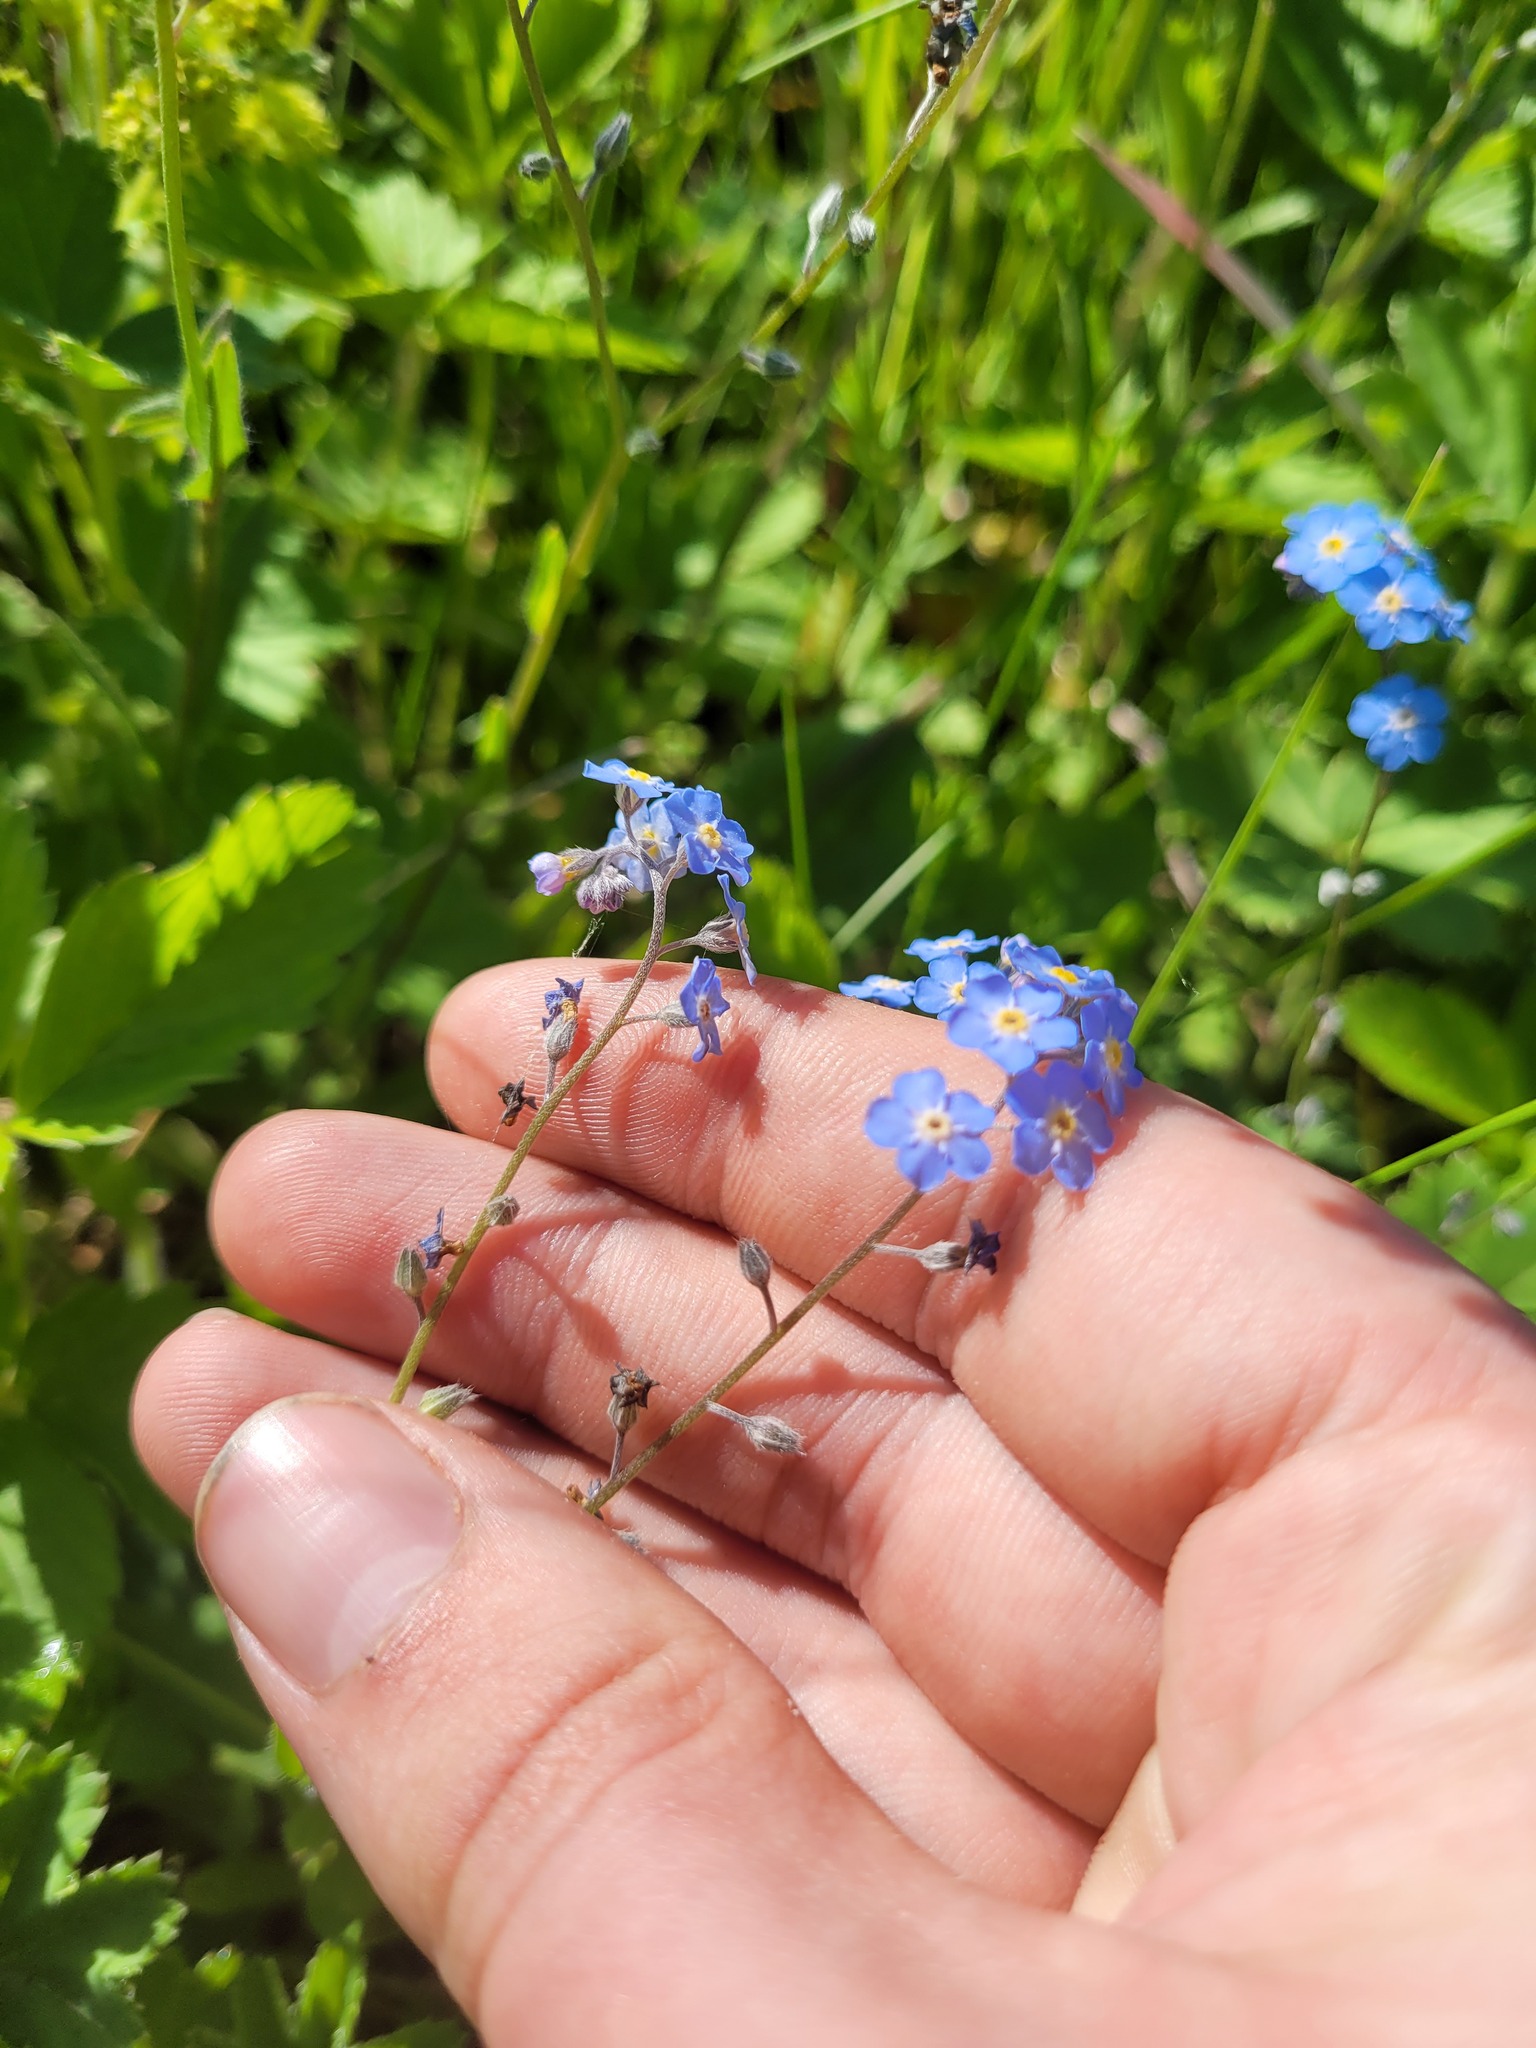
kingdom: Plantae
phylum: Tracheophyta
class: Magnoliopsida
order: Boraginales
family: Boraginaceae
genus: Myosotis
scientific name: Myosotis alpestris
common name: Alpine forget-me-not
